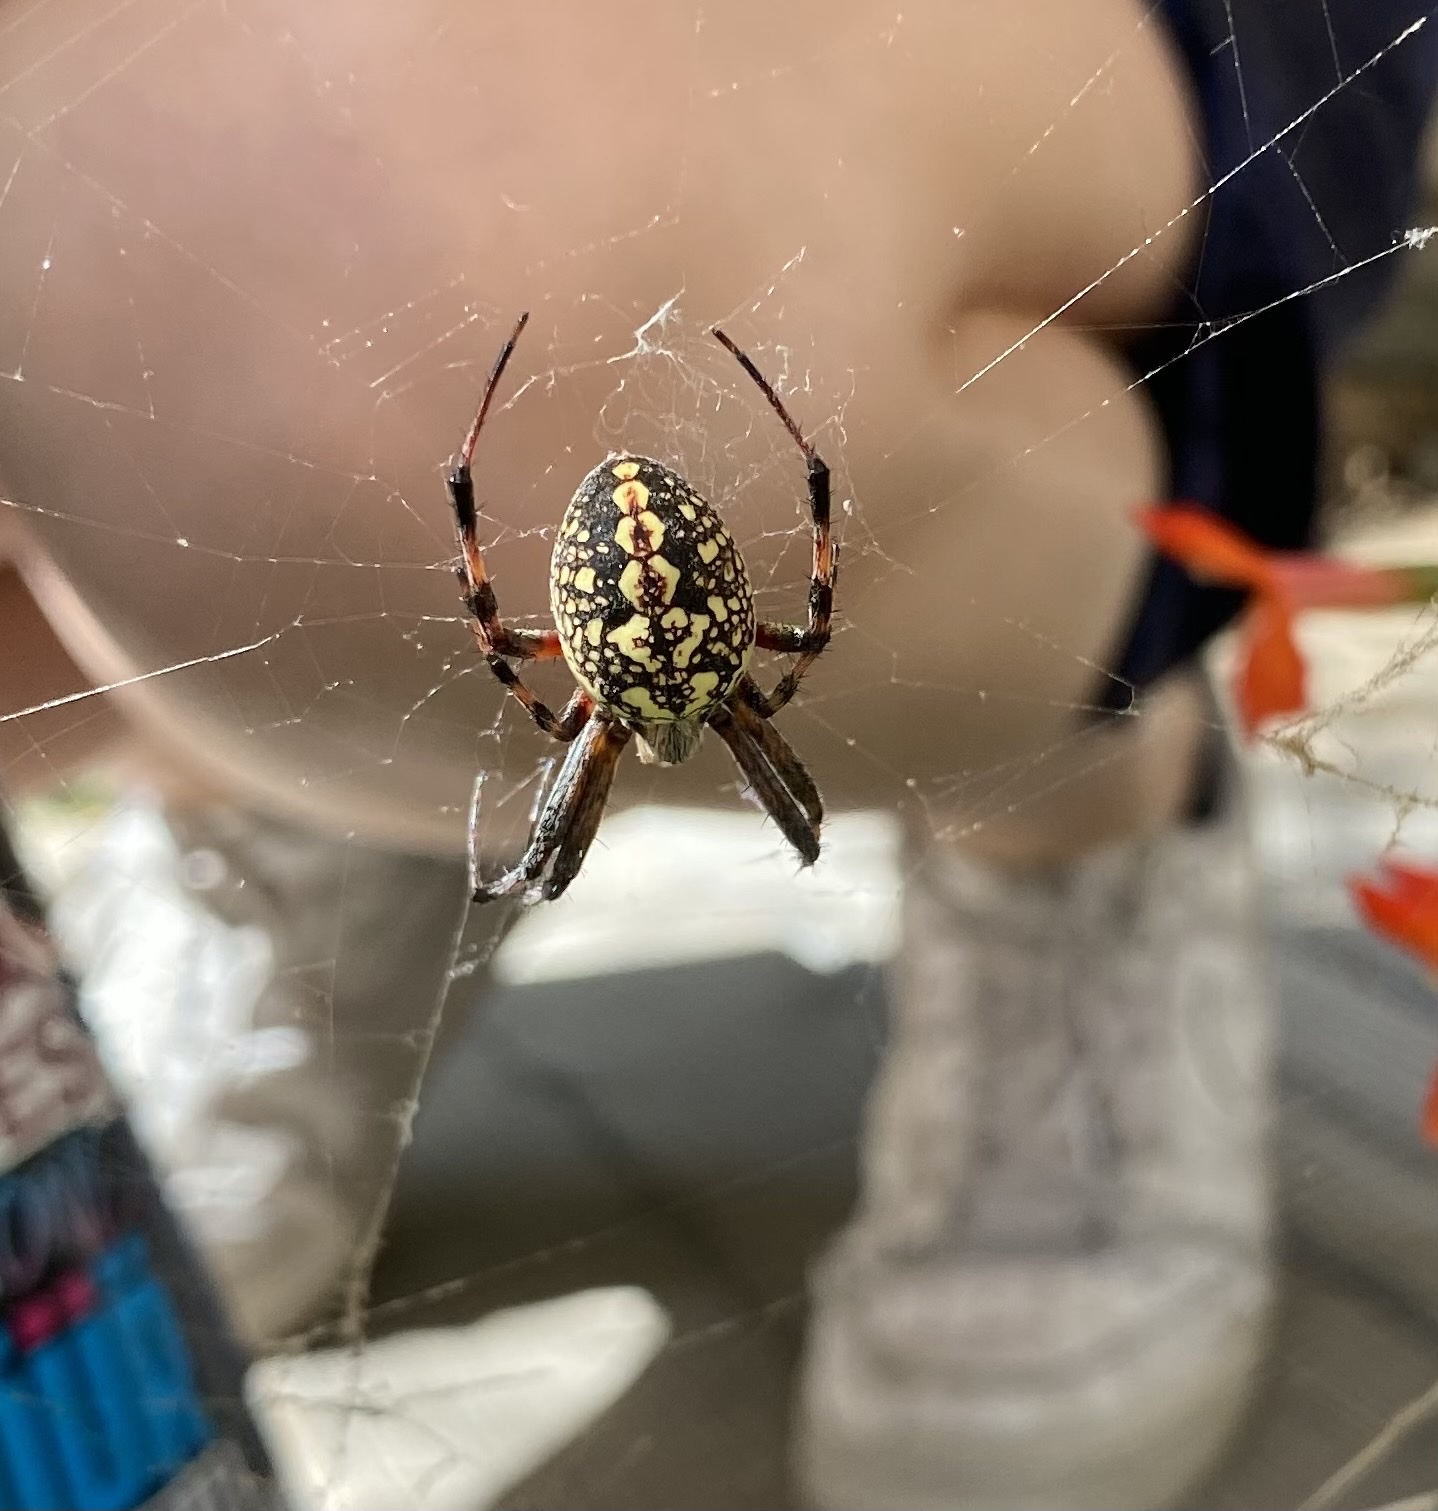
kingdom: Animalia
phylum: Arthropoda
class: Arachnida
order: Araneae
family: Araneidae
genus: Neoscona
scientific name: Neoscona oaxacensis
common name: Orb weavers
